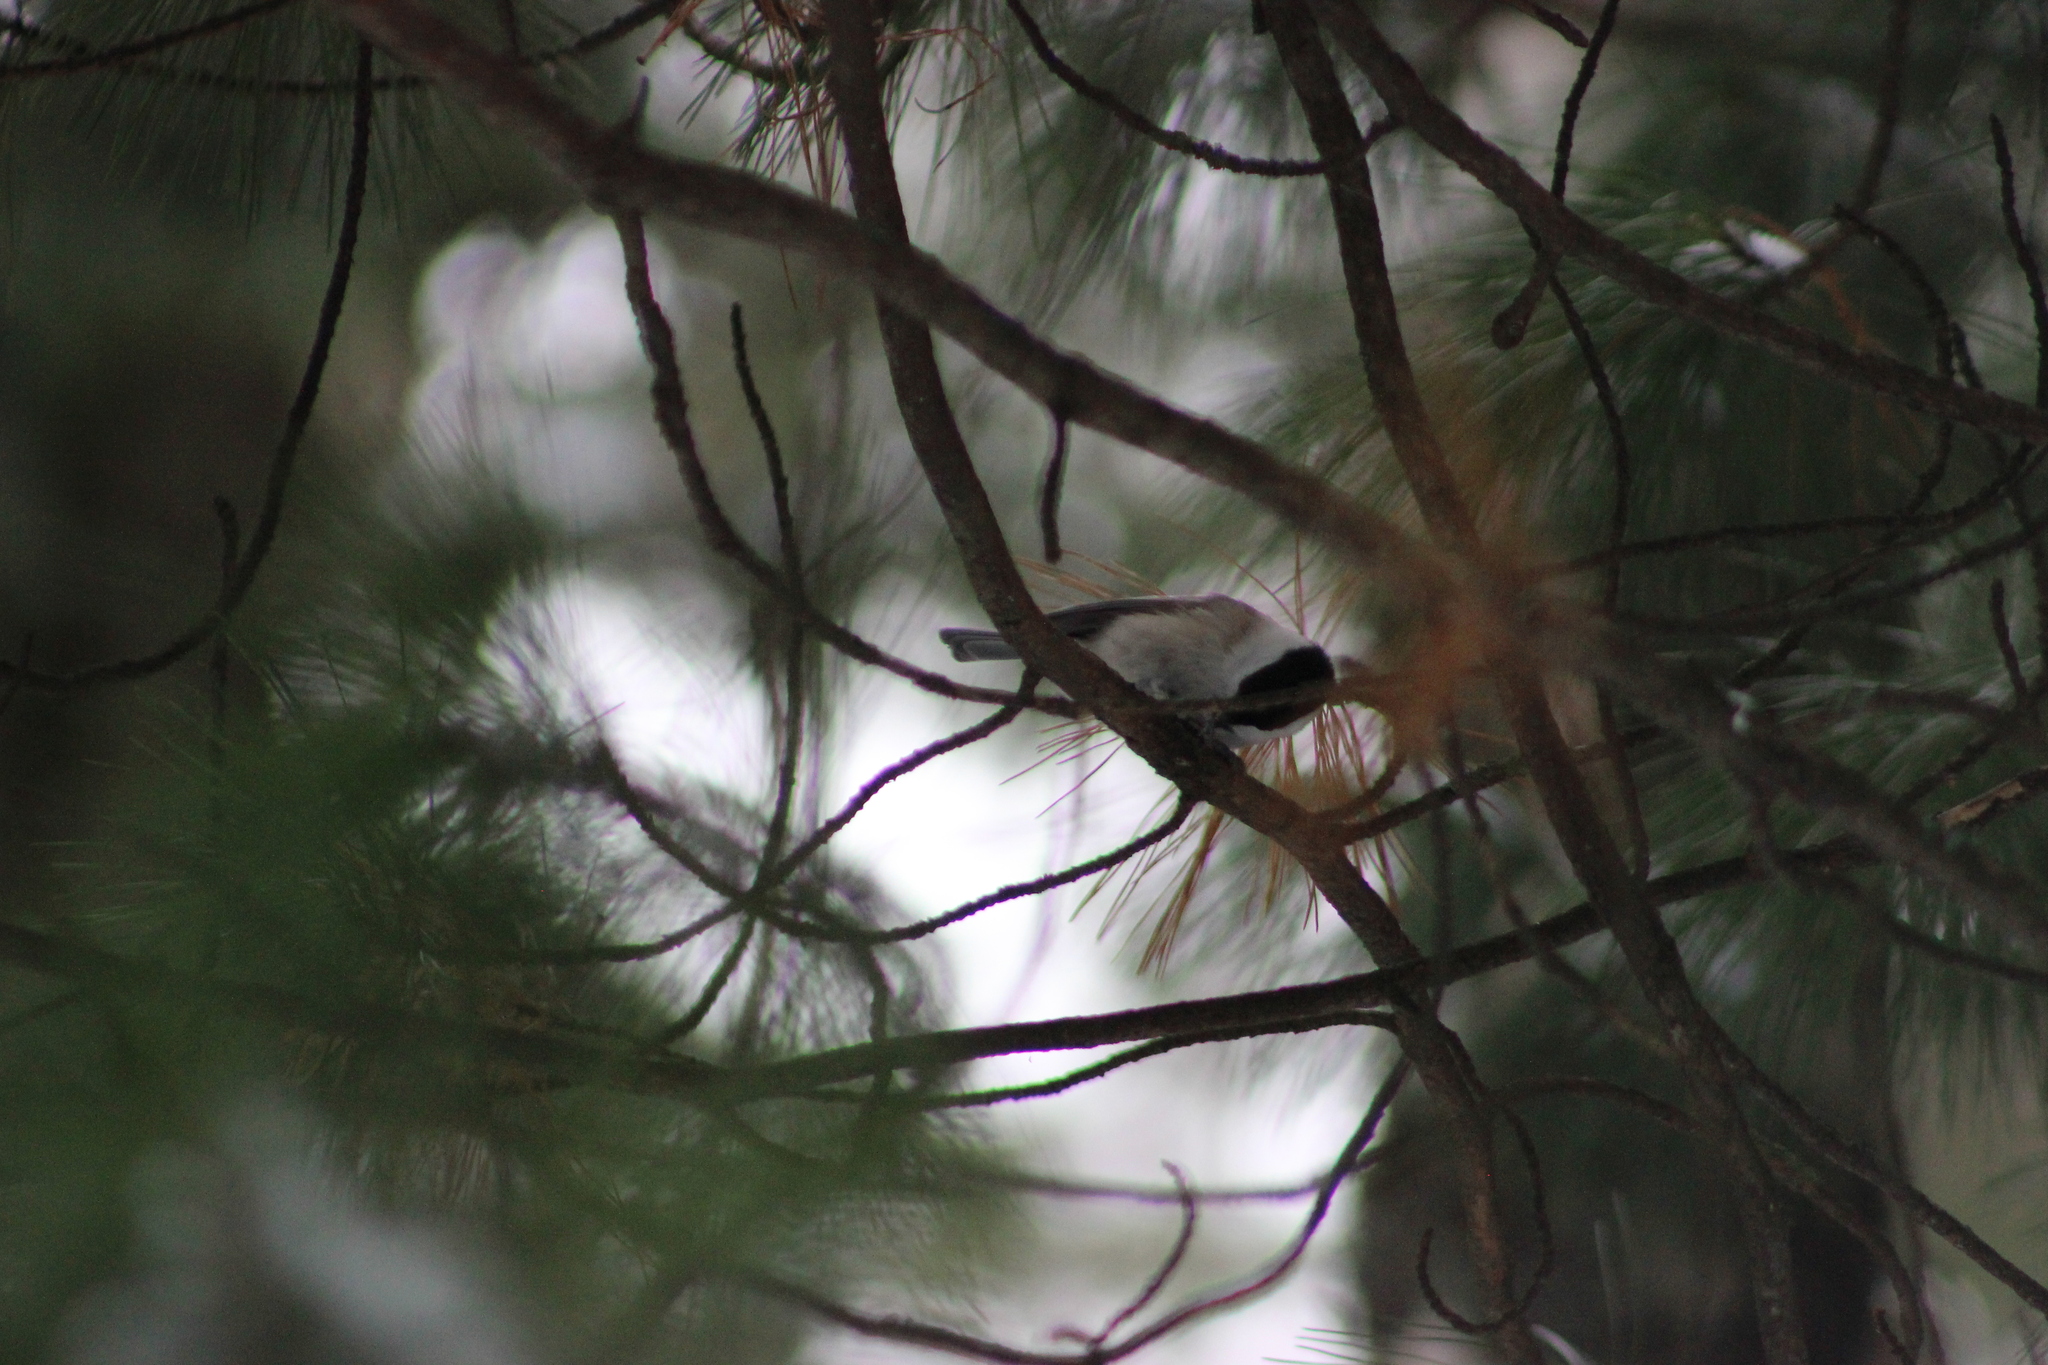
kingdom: Animalia
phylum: Chordata
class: Aves
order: Passeriformes
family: Paridae
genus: Poecile
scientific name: Poecile montanus
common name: Willow tit
